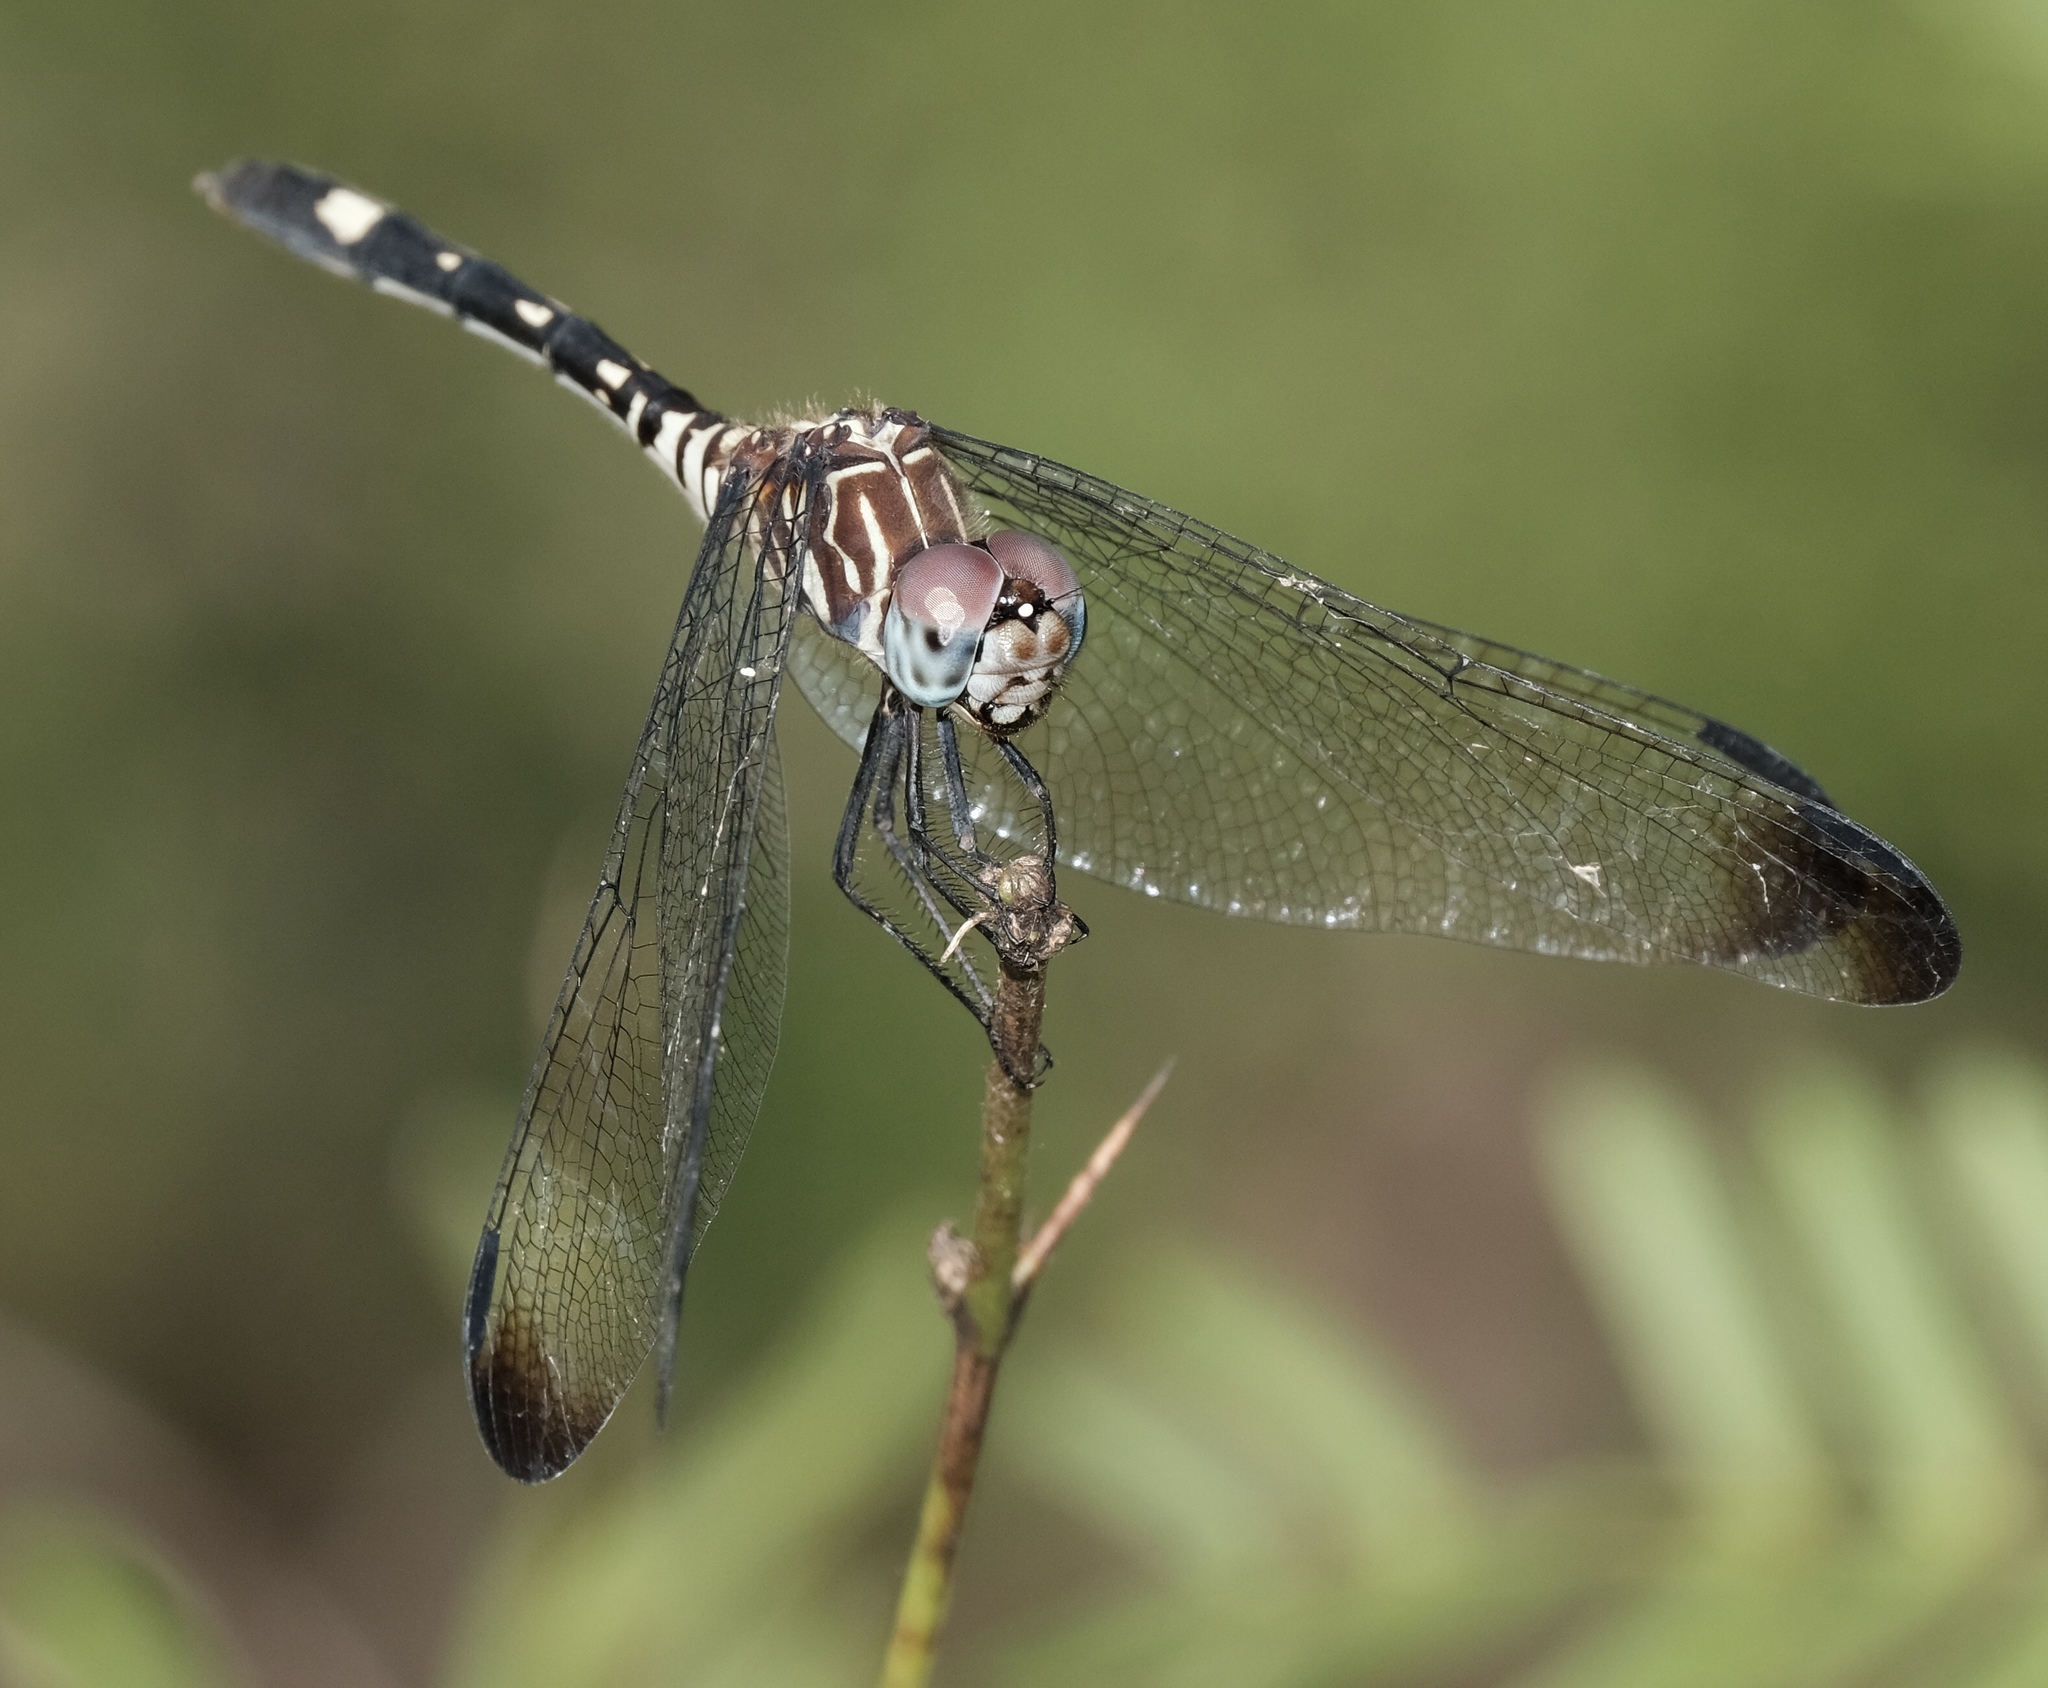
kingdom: Animalia
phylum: Arthropoda
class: Insecta
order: Odonata
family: Libellulidae
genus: Dythemis
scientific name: Dythemis velox
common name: Swift setwing
